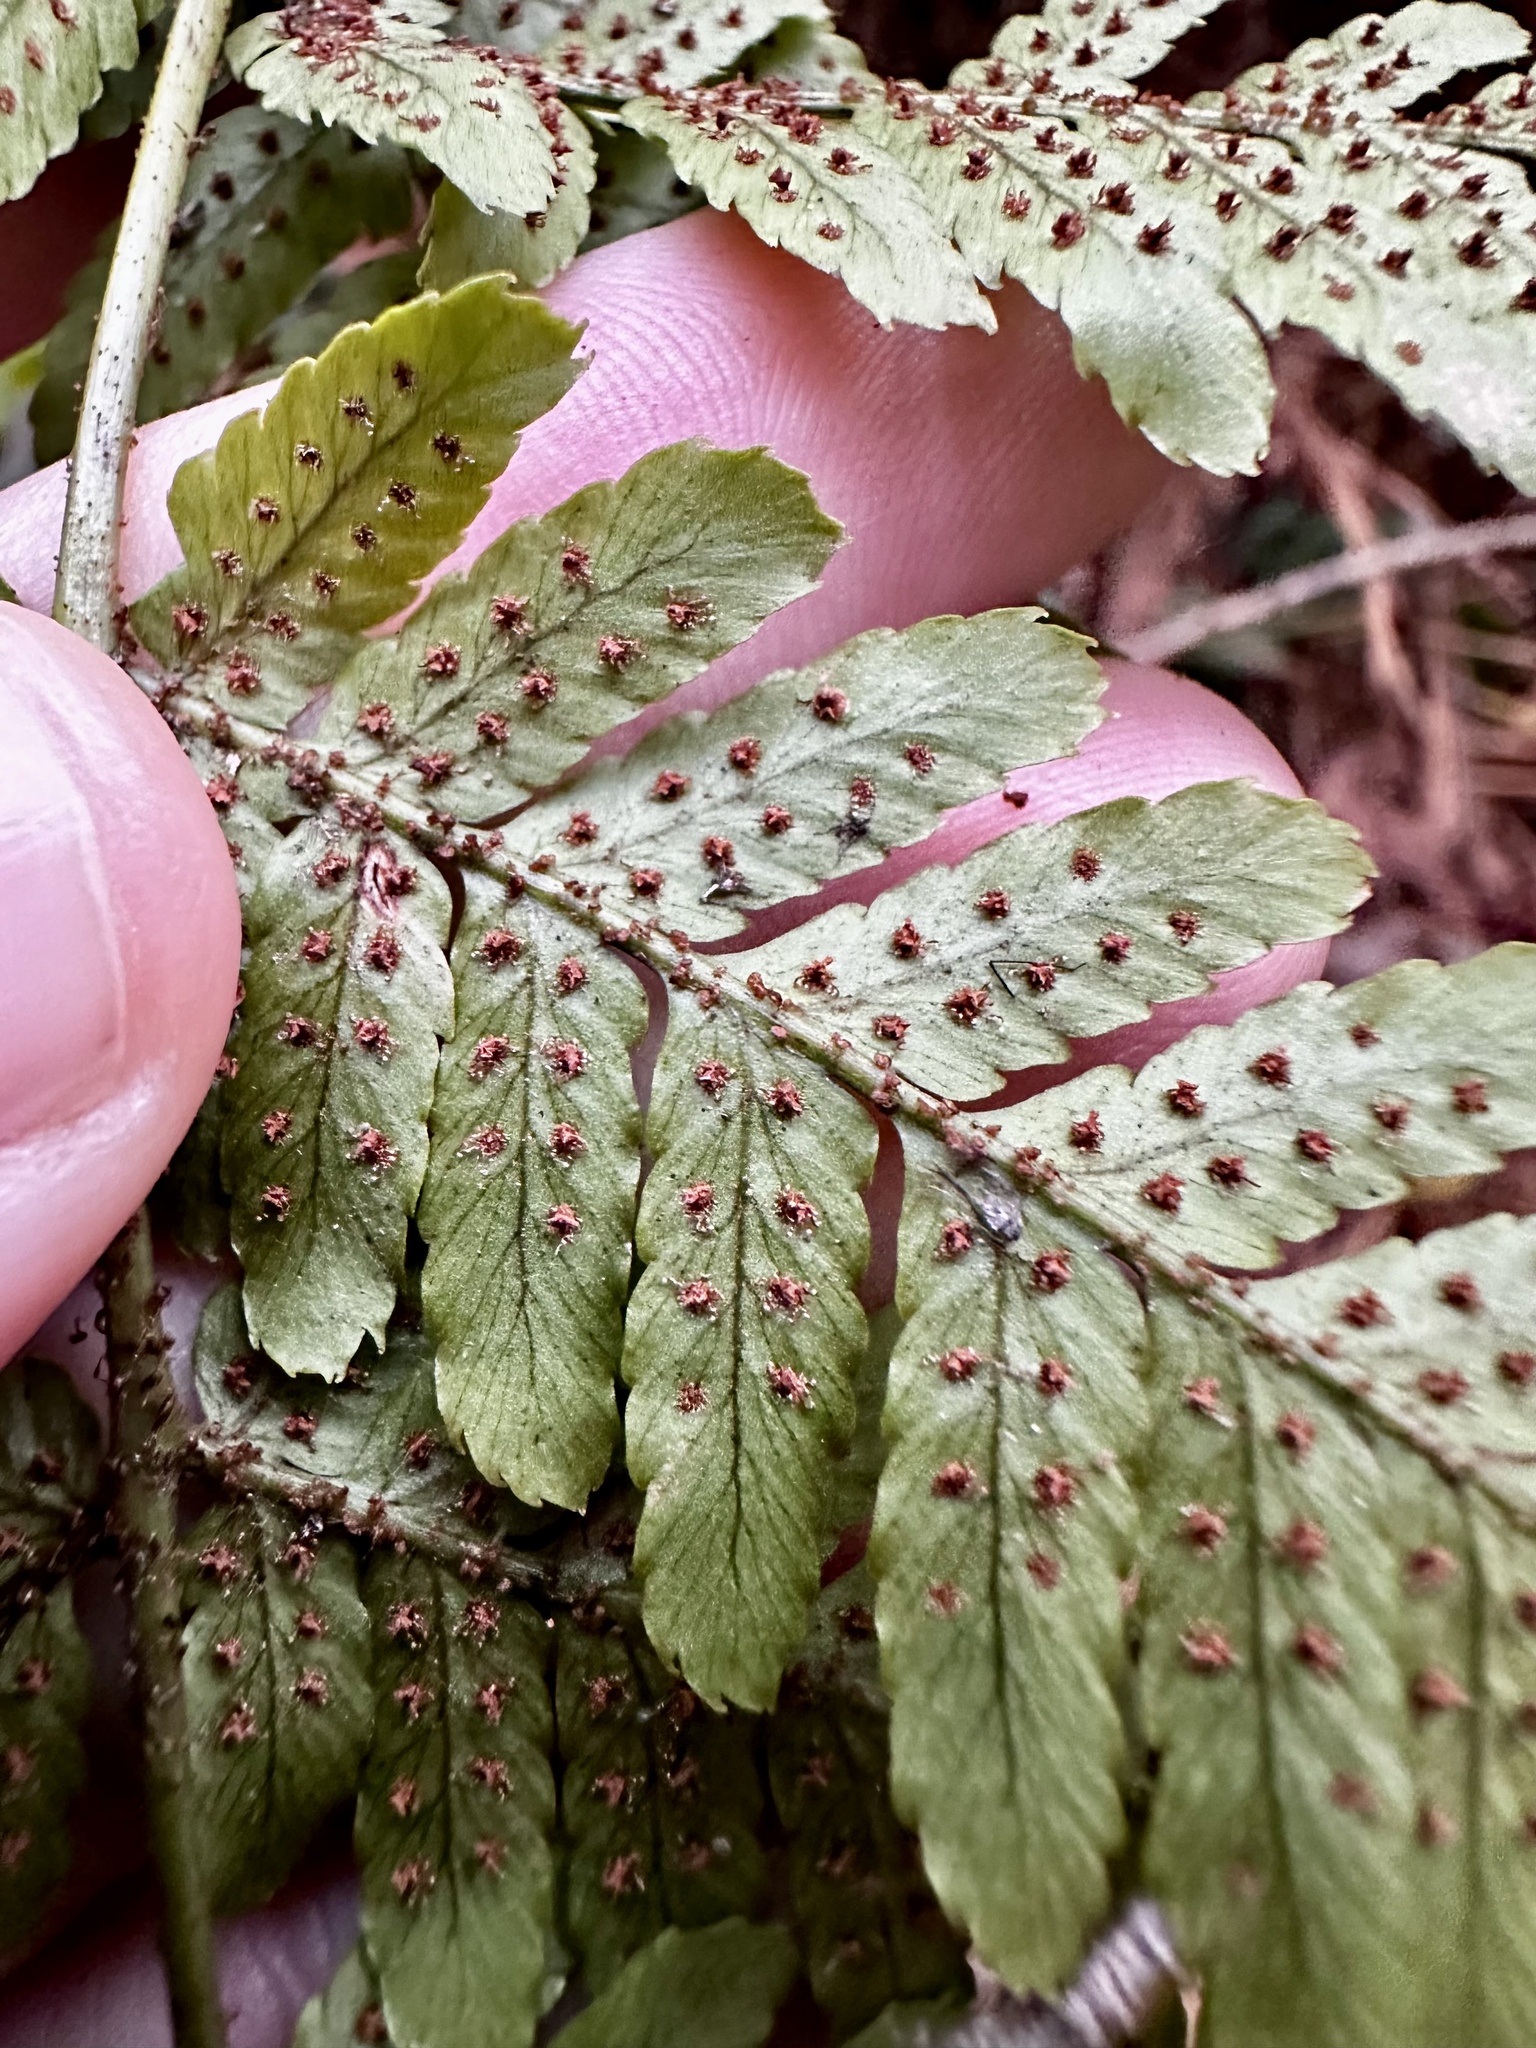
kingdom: Plantae
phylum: Tracheophyta
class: Polypodiopsida
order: Polypodiales
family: Dryopteridaceae
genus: Dryopteris
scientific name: Dryopteris erythrosora
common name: Autumn fern
